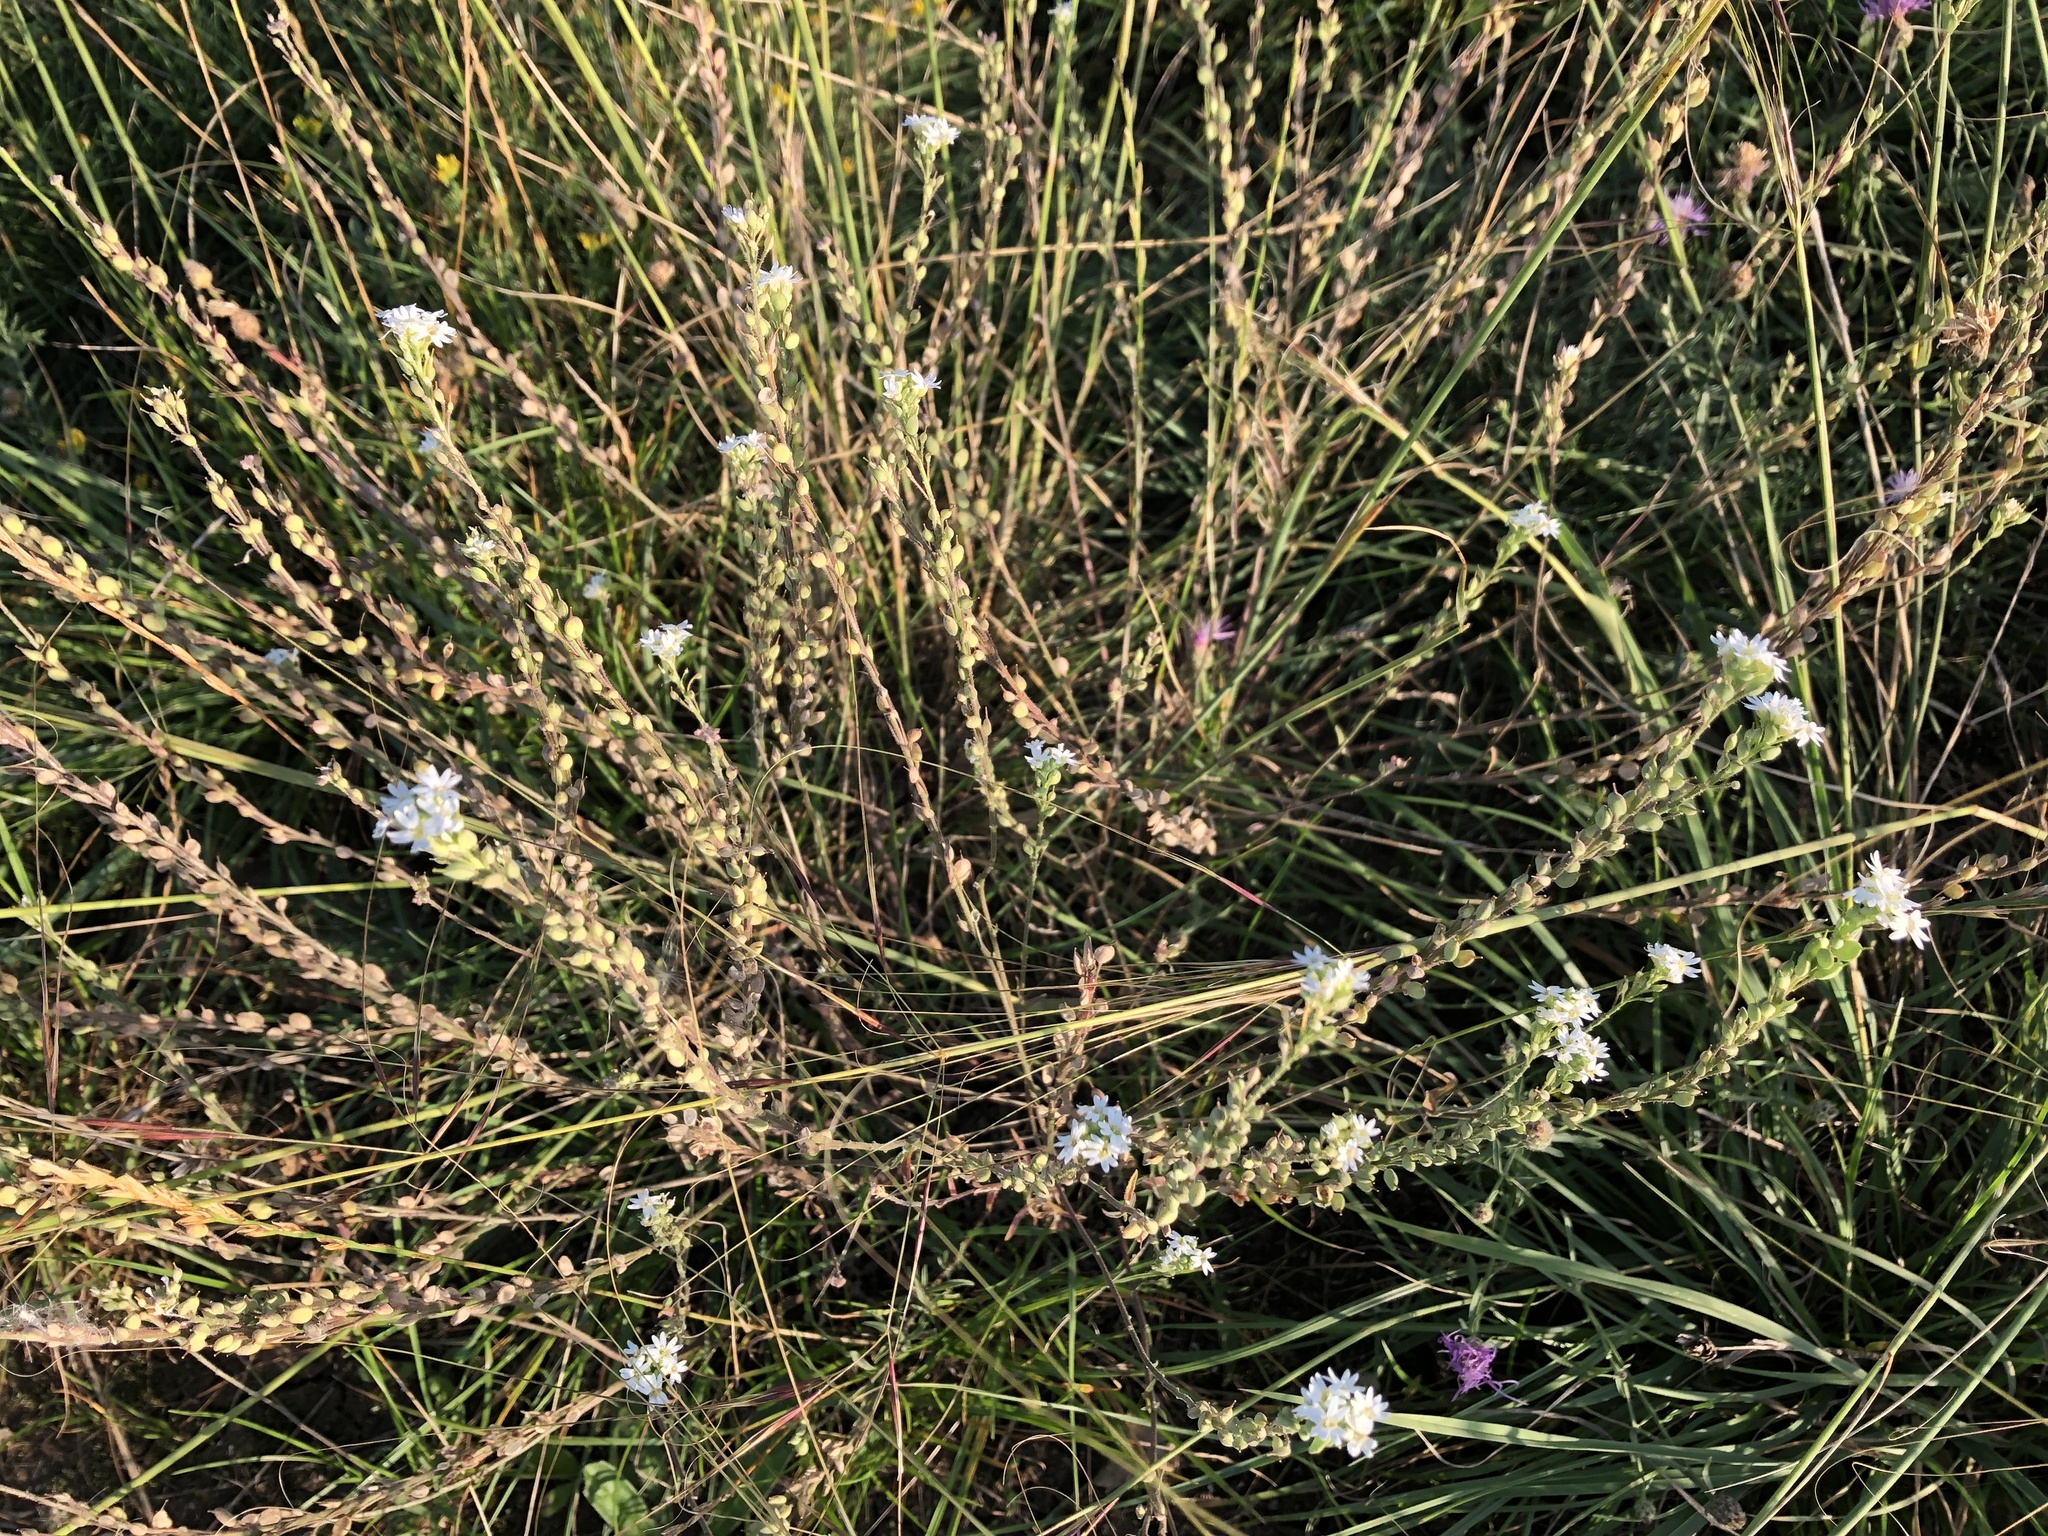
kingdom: Plantae
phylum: Tracheophyta
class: Magnoliopsida
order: Brassicales
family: Brassicaceae
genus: Berteroa
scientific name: Berteroa incana
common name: Hoary alison
